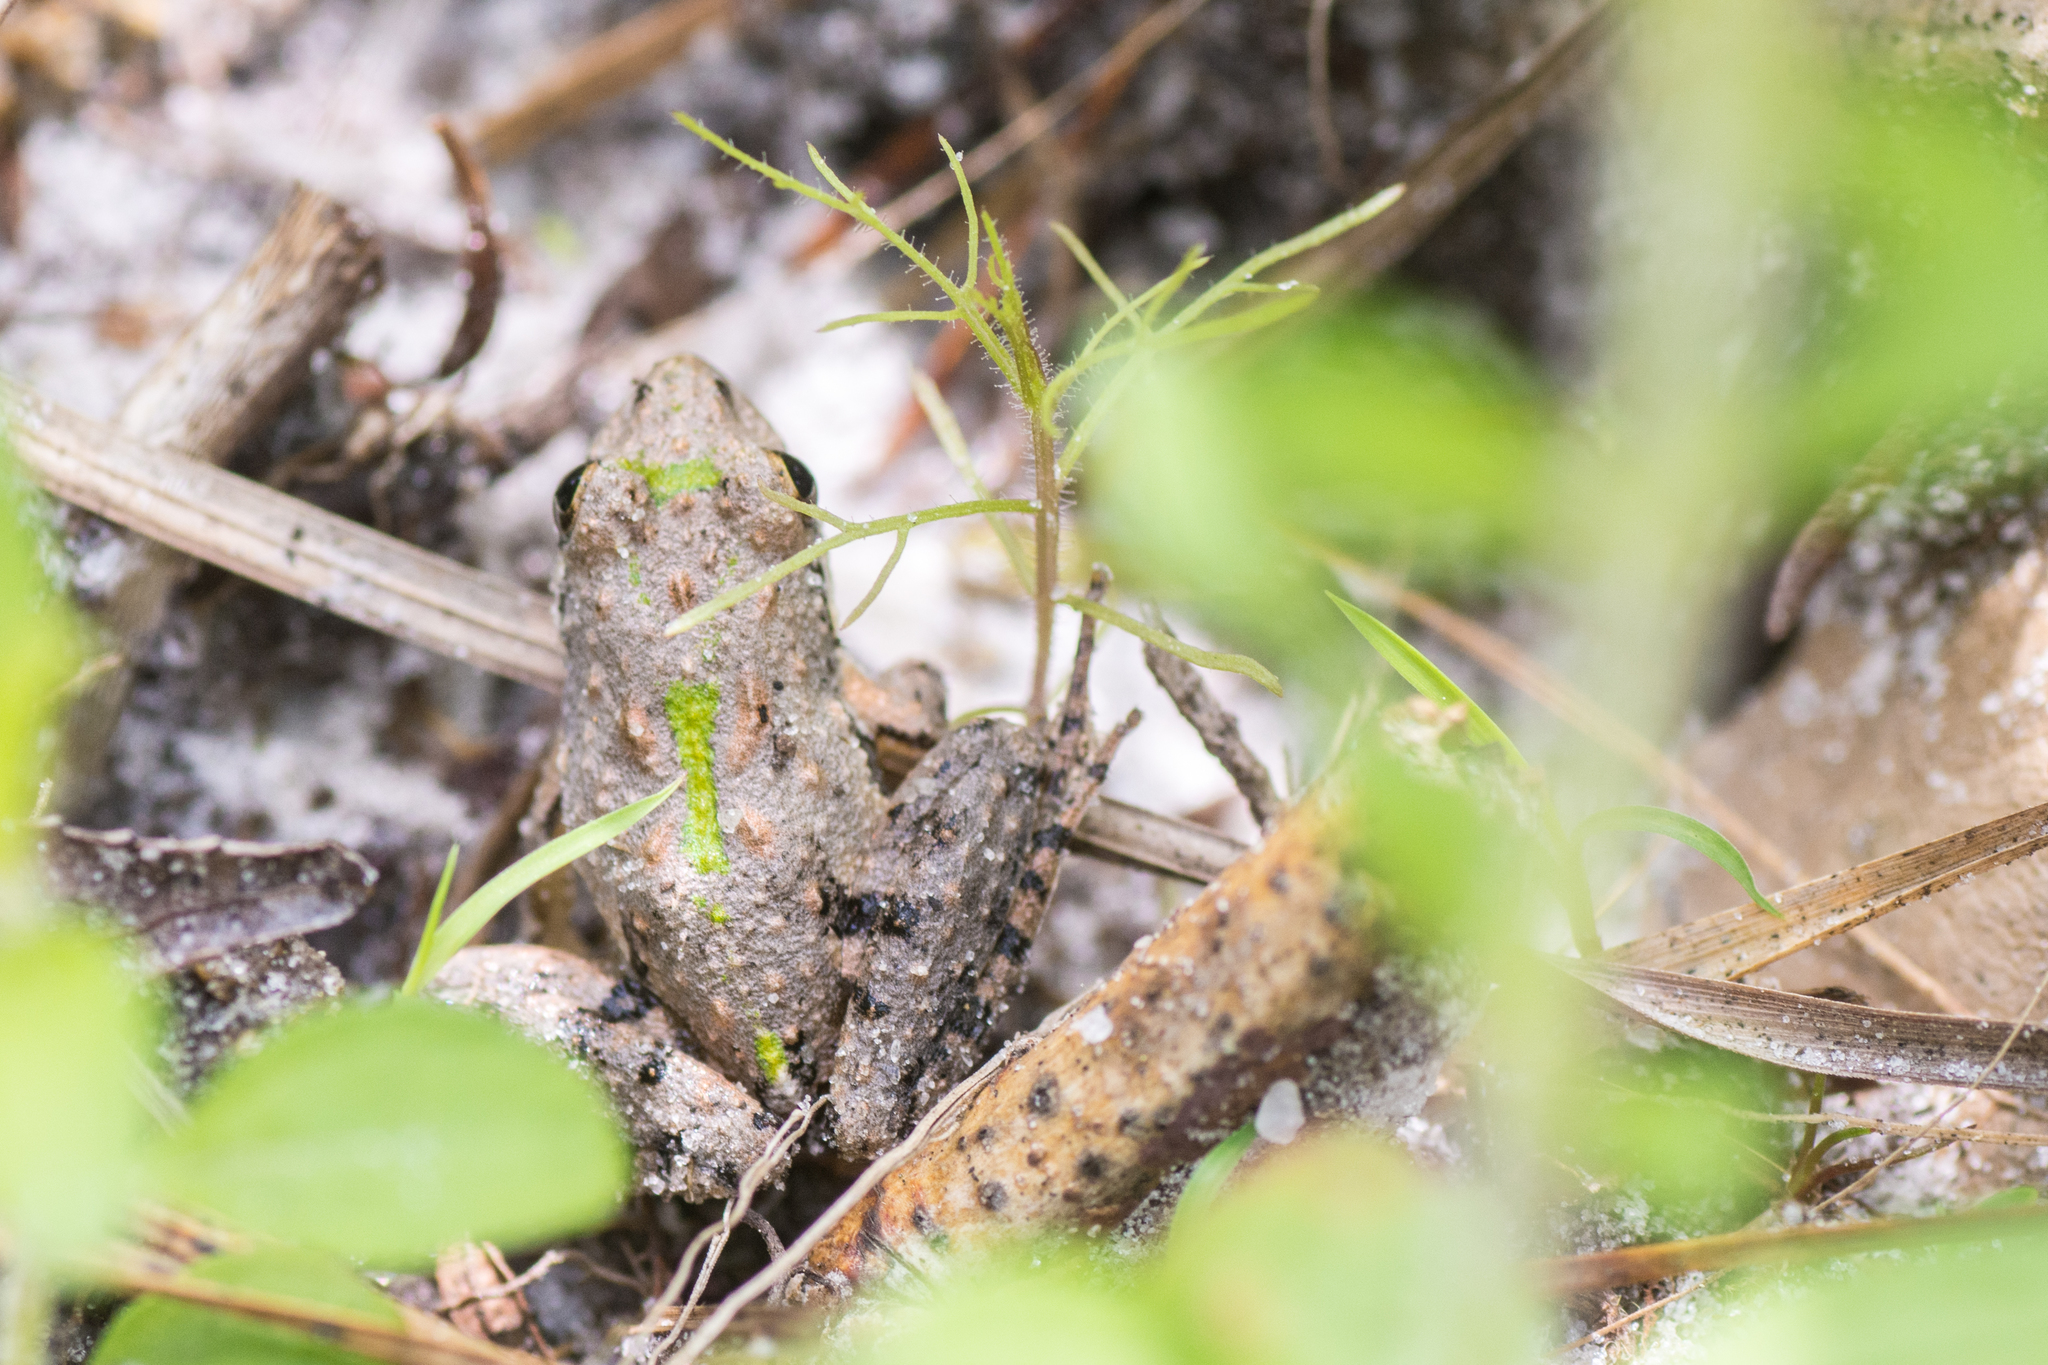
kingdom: Animalia
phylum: Chordata
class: Amphibia
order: Anura
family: Hylidae
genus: Acris
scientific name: Acris gryllus
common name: Southern cricket frog
